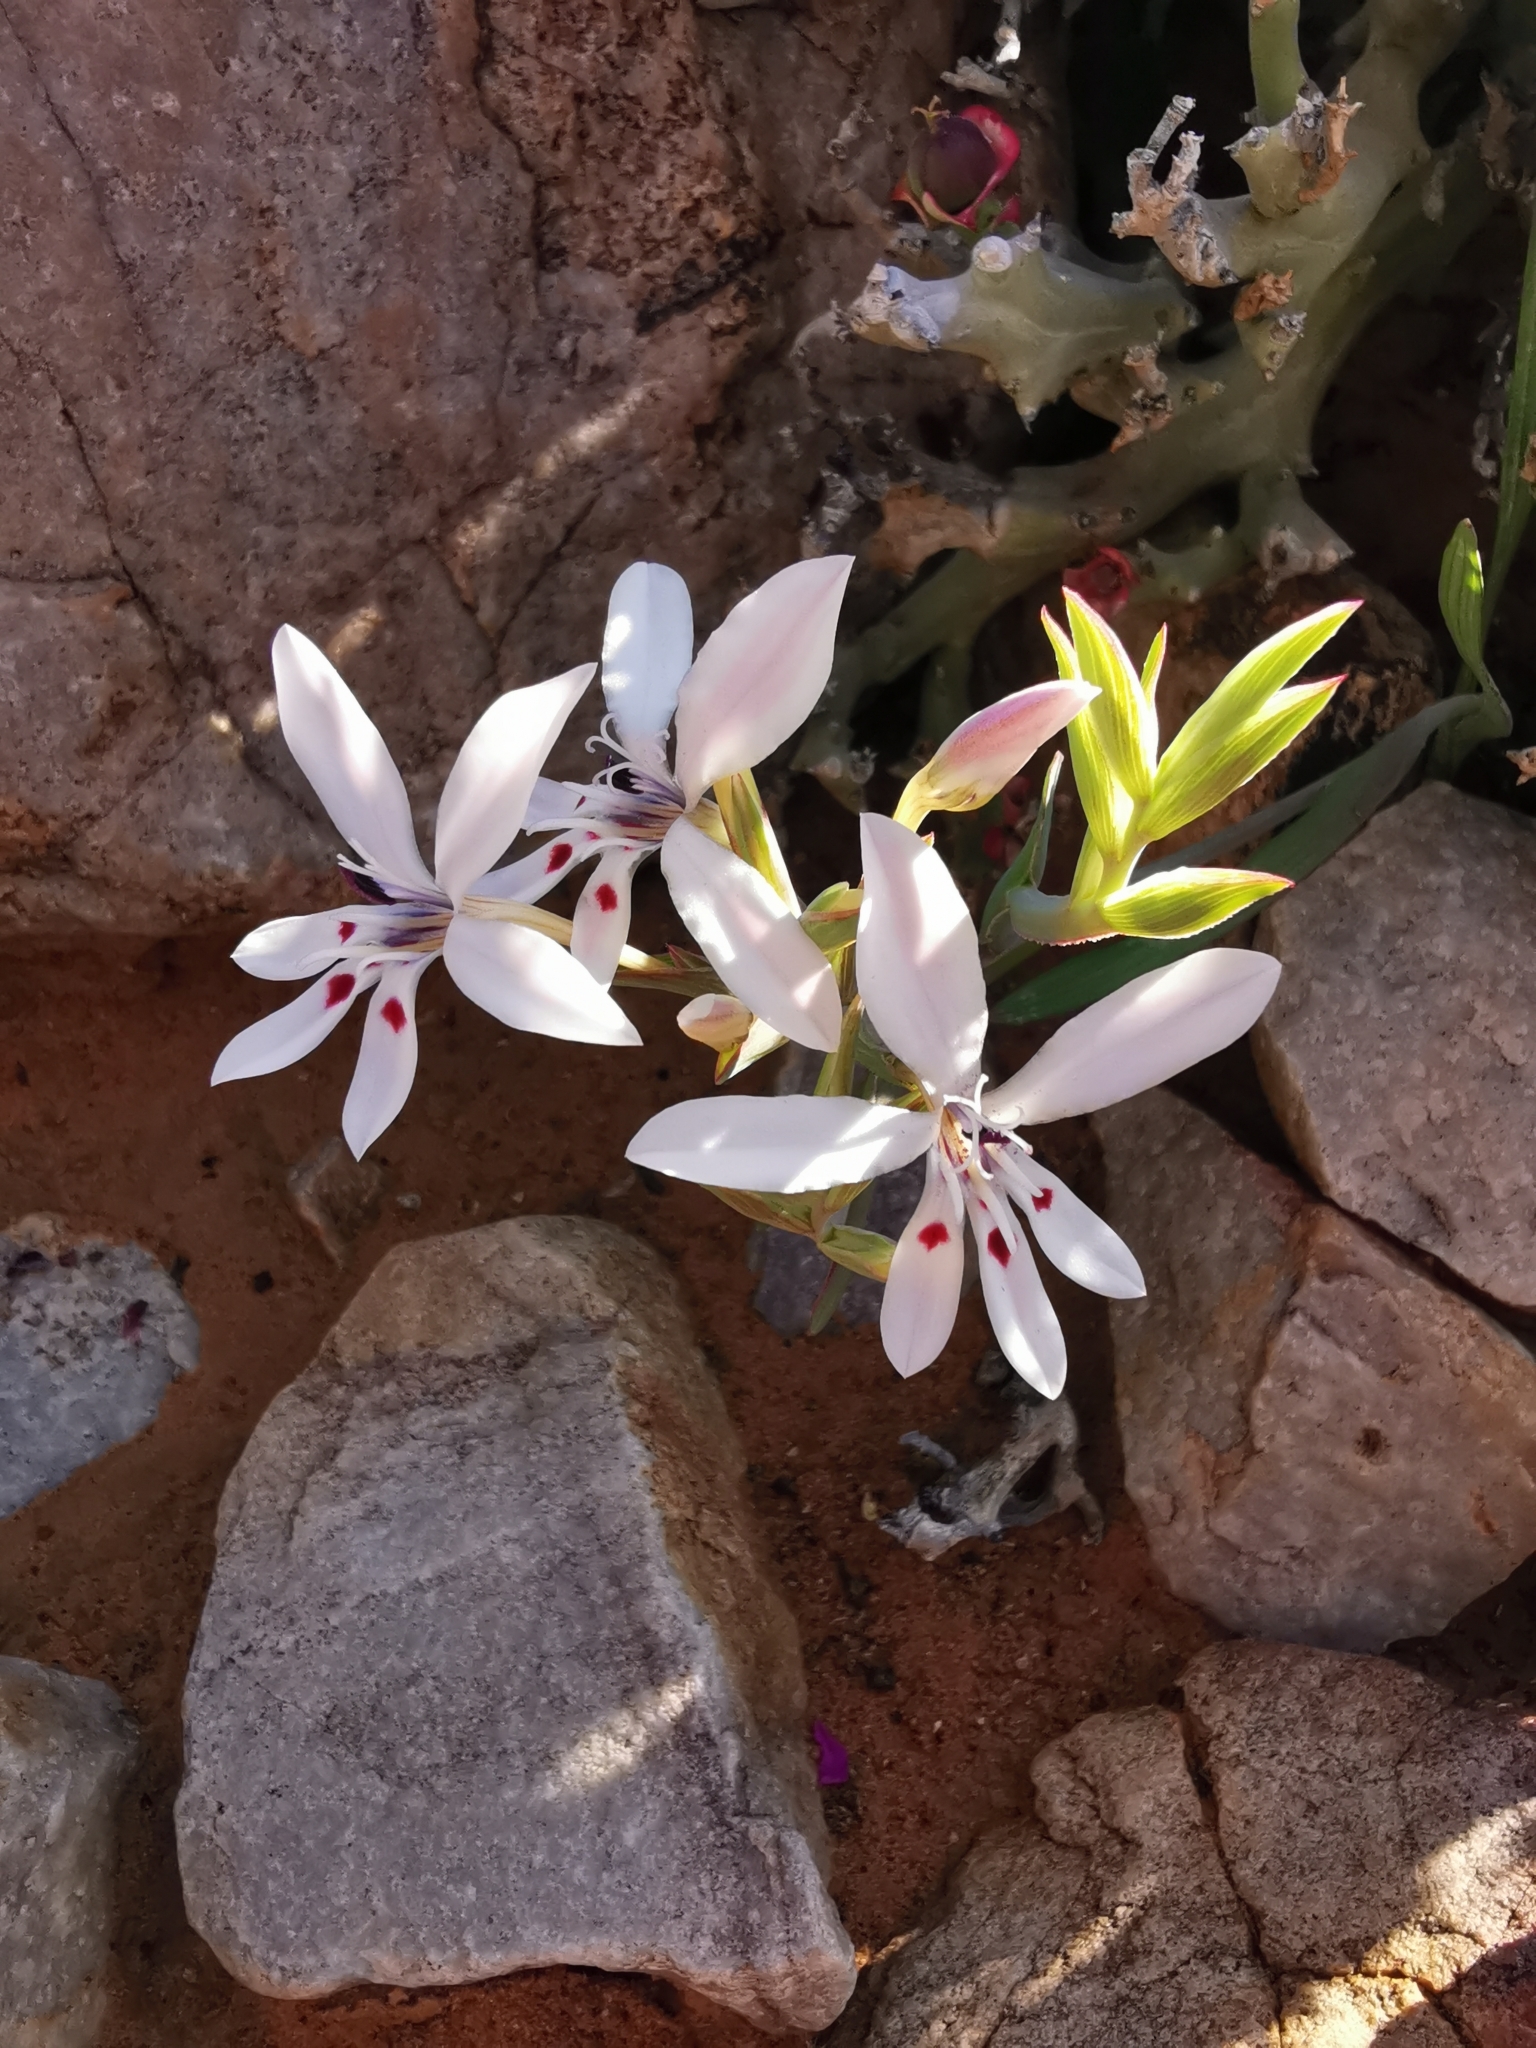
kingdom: Plantae
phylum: Tracheophyta
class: Liliopsida
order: Asparagales
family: Iridaceae
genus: Lapeirousia
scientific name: Lapeirousia fabricii
